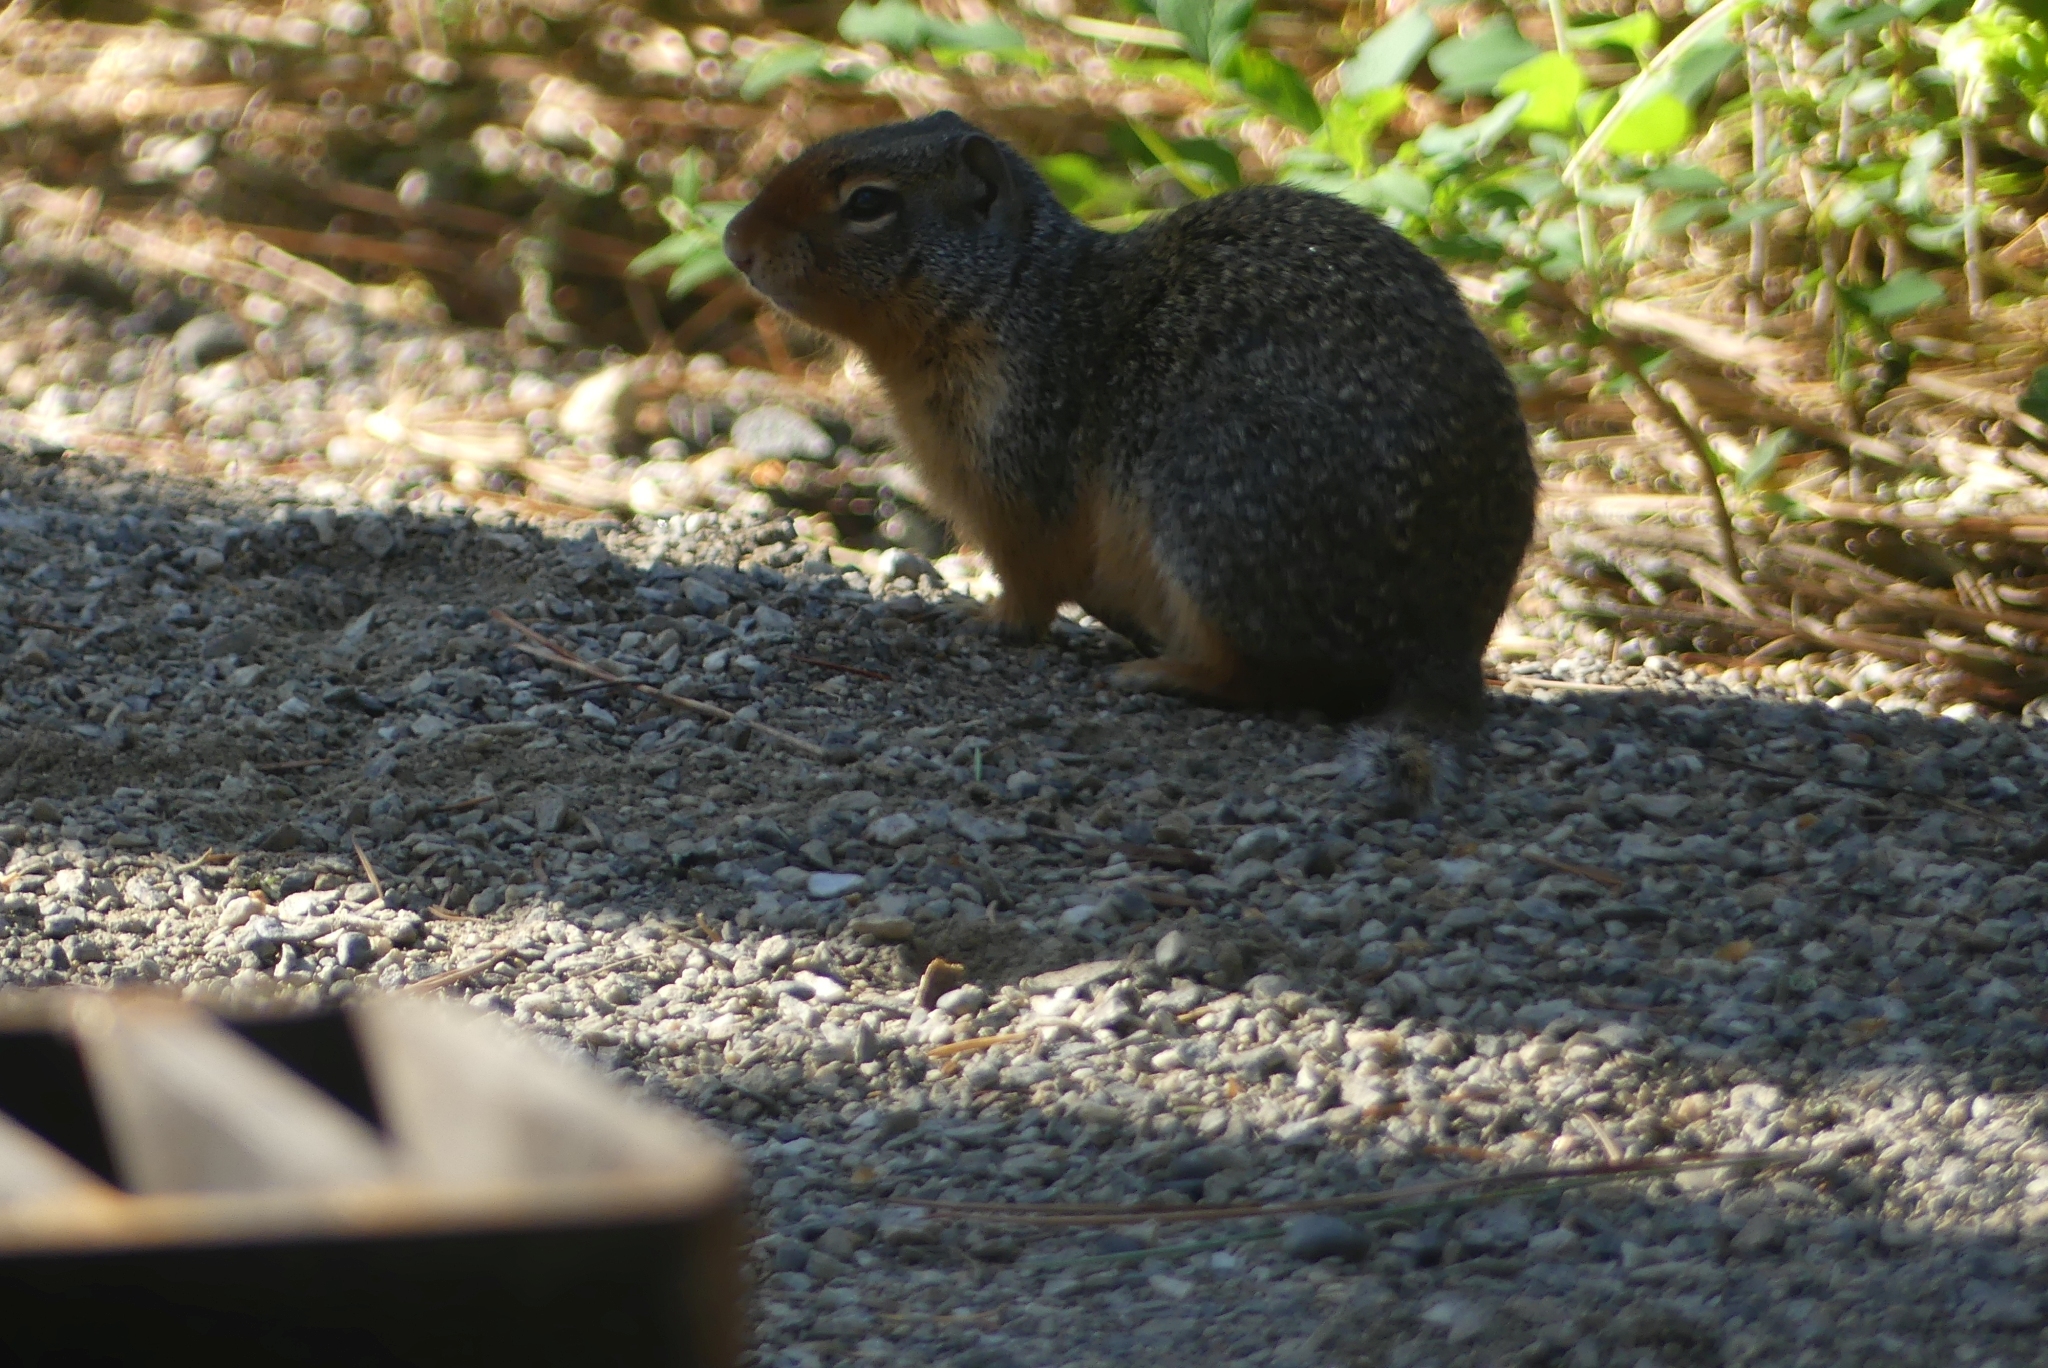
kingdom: Animalia
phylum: Chordata
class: Mammalia
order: Rodentia
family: Sciuridae
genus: Urocitellus
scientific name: Urocitellus columbianus
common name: Columbian ground squirrel
